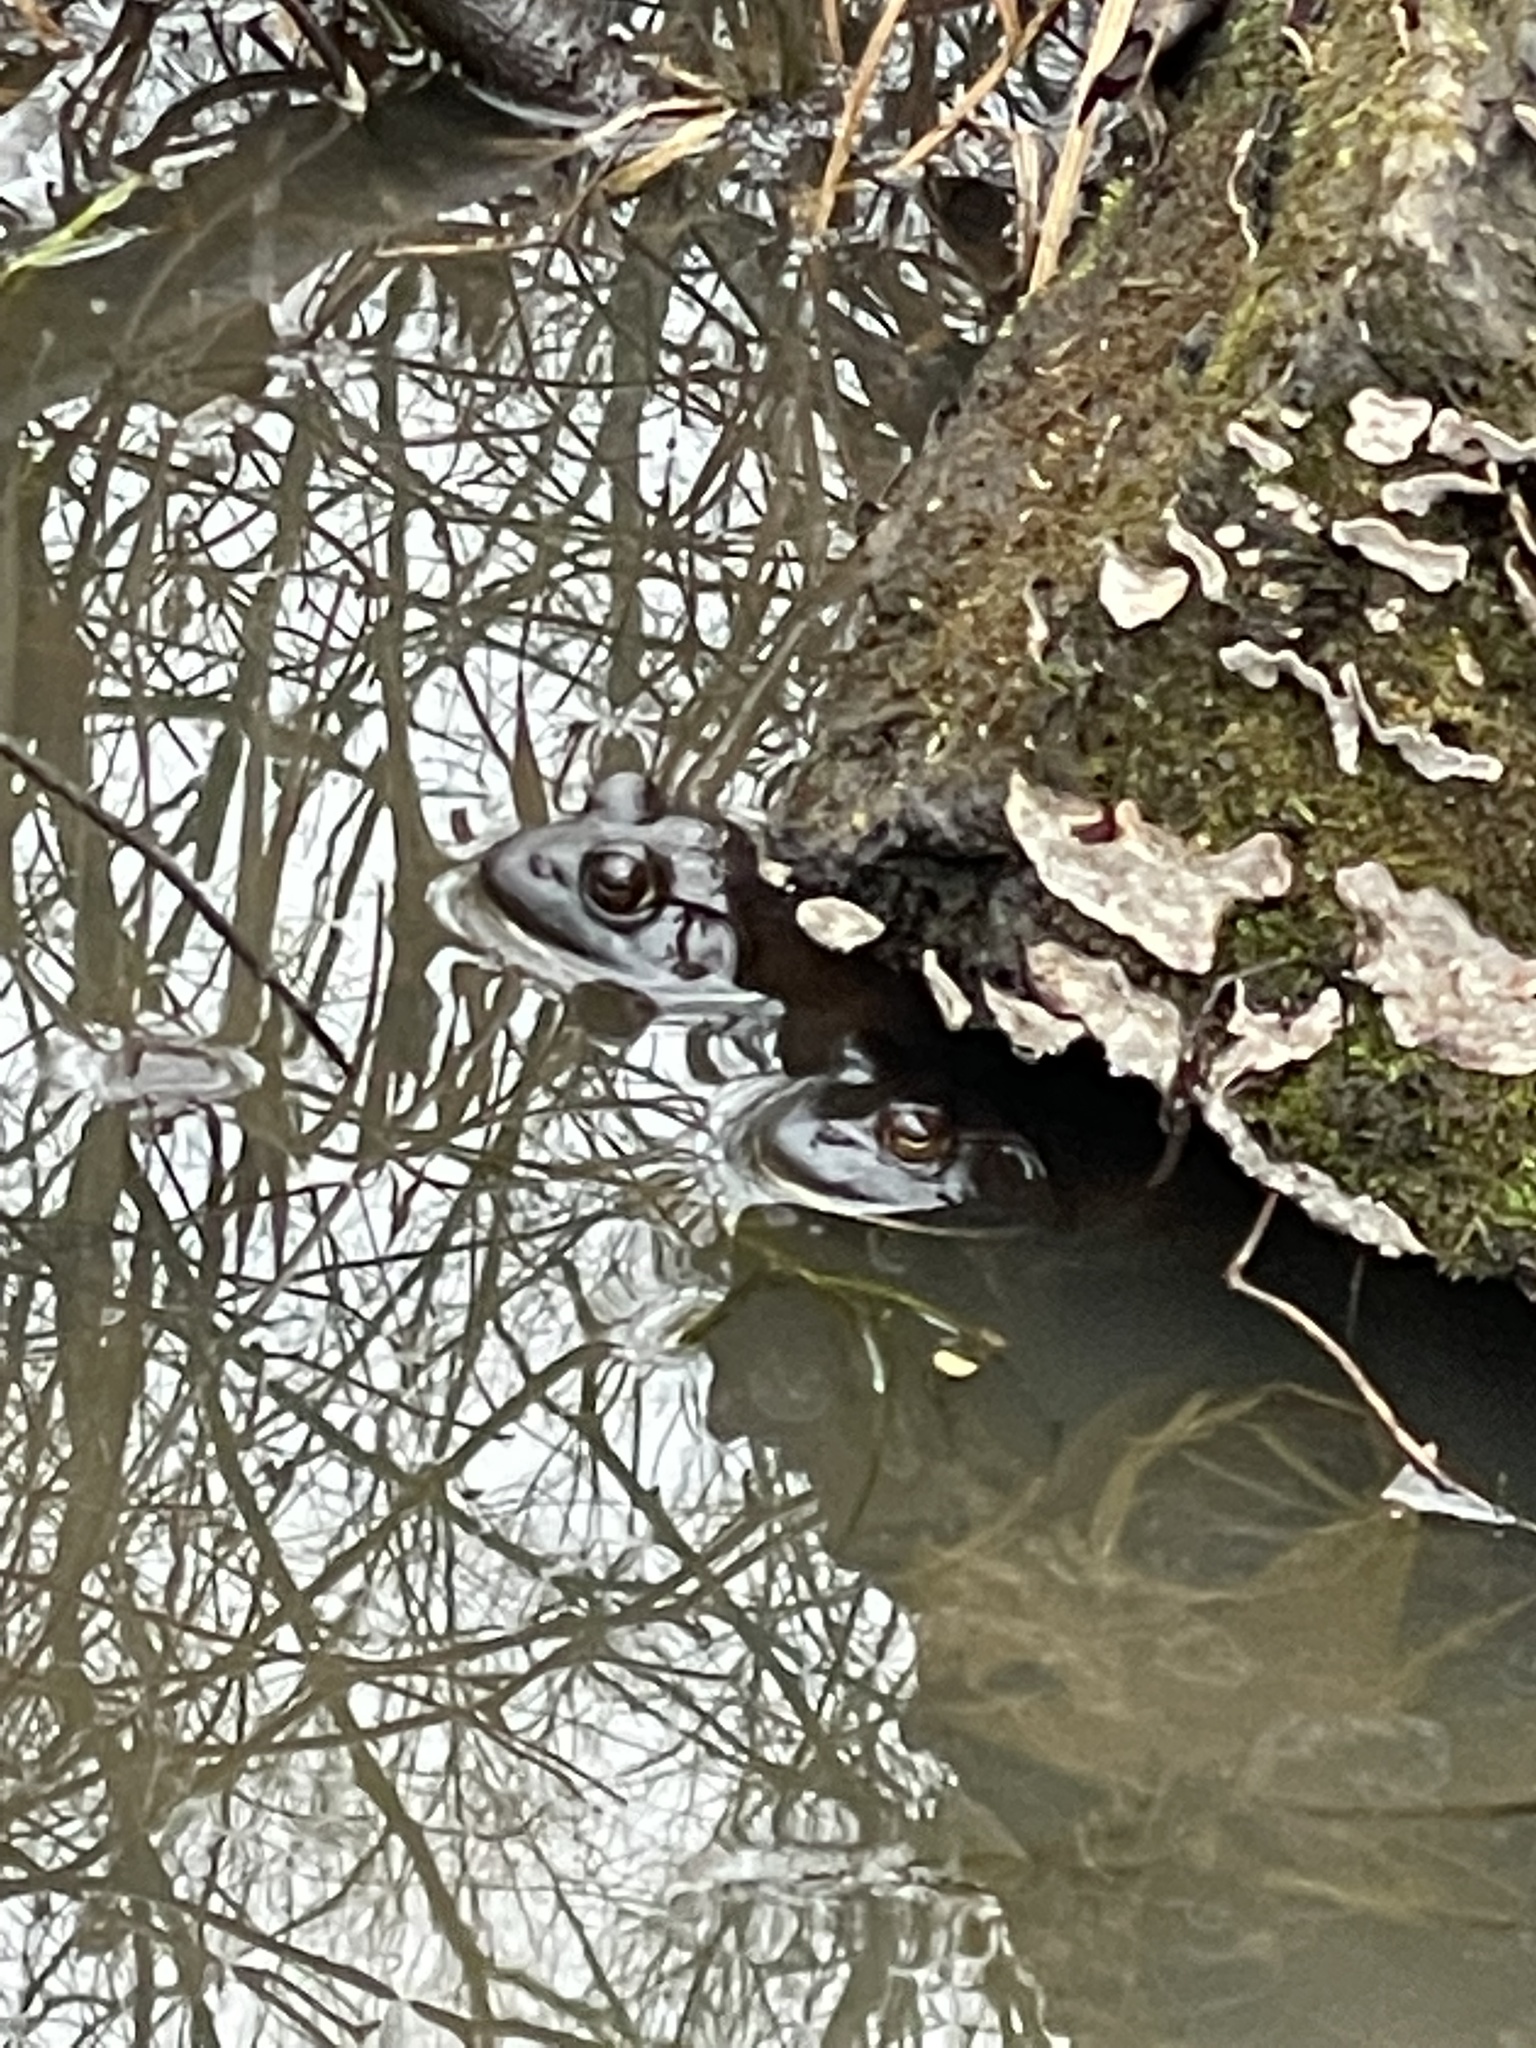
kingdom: Animalia
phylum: Chordata
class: Amphibia
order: Anura
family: Ranidae
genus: Lithobates
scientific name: Lithobates catesbeianus
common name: American bullfrog
